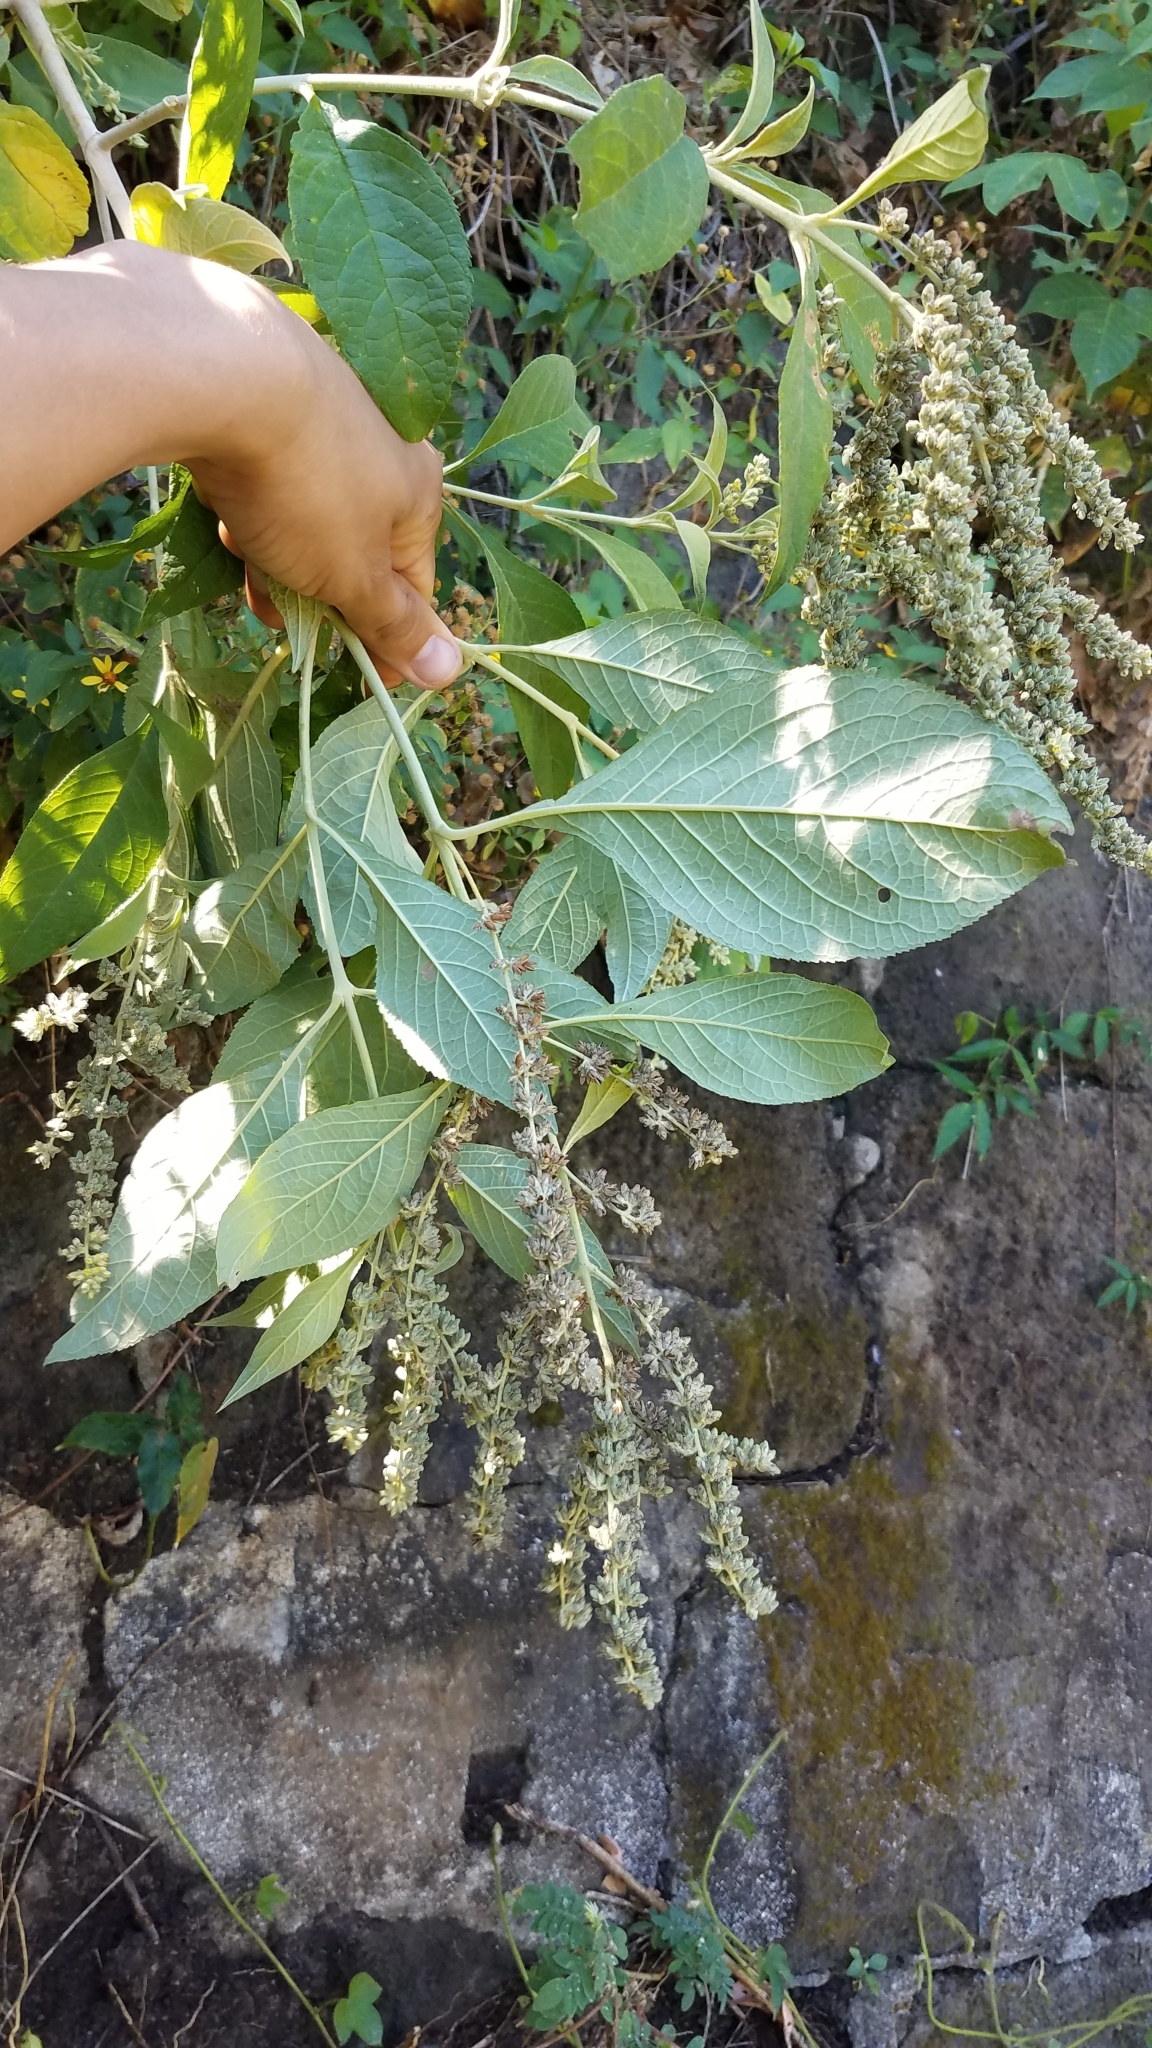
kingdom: Plantae
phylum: Tracheophyta
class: Magnoliopsida
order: Lamiales
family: Scrophulariaceae
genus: Buddleja
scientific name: Buddleja americana
